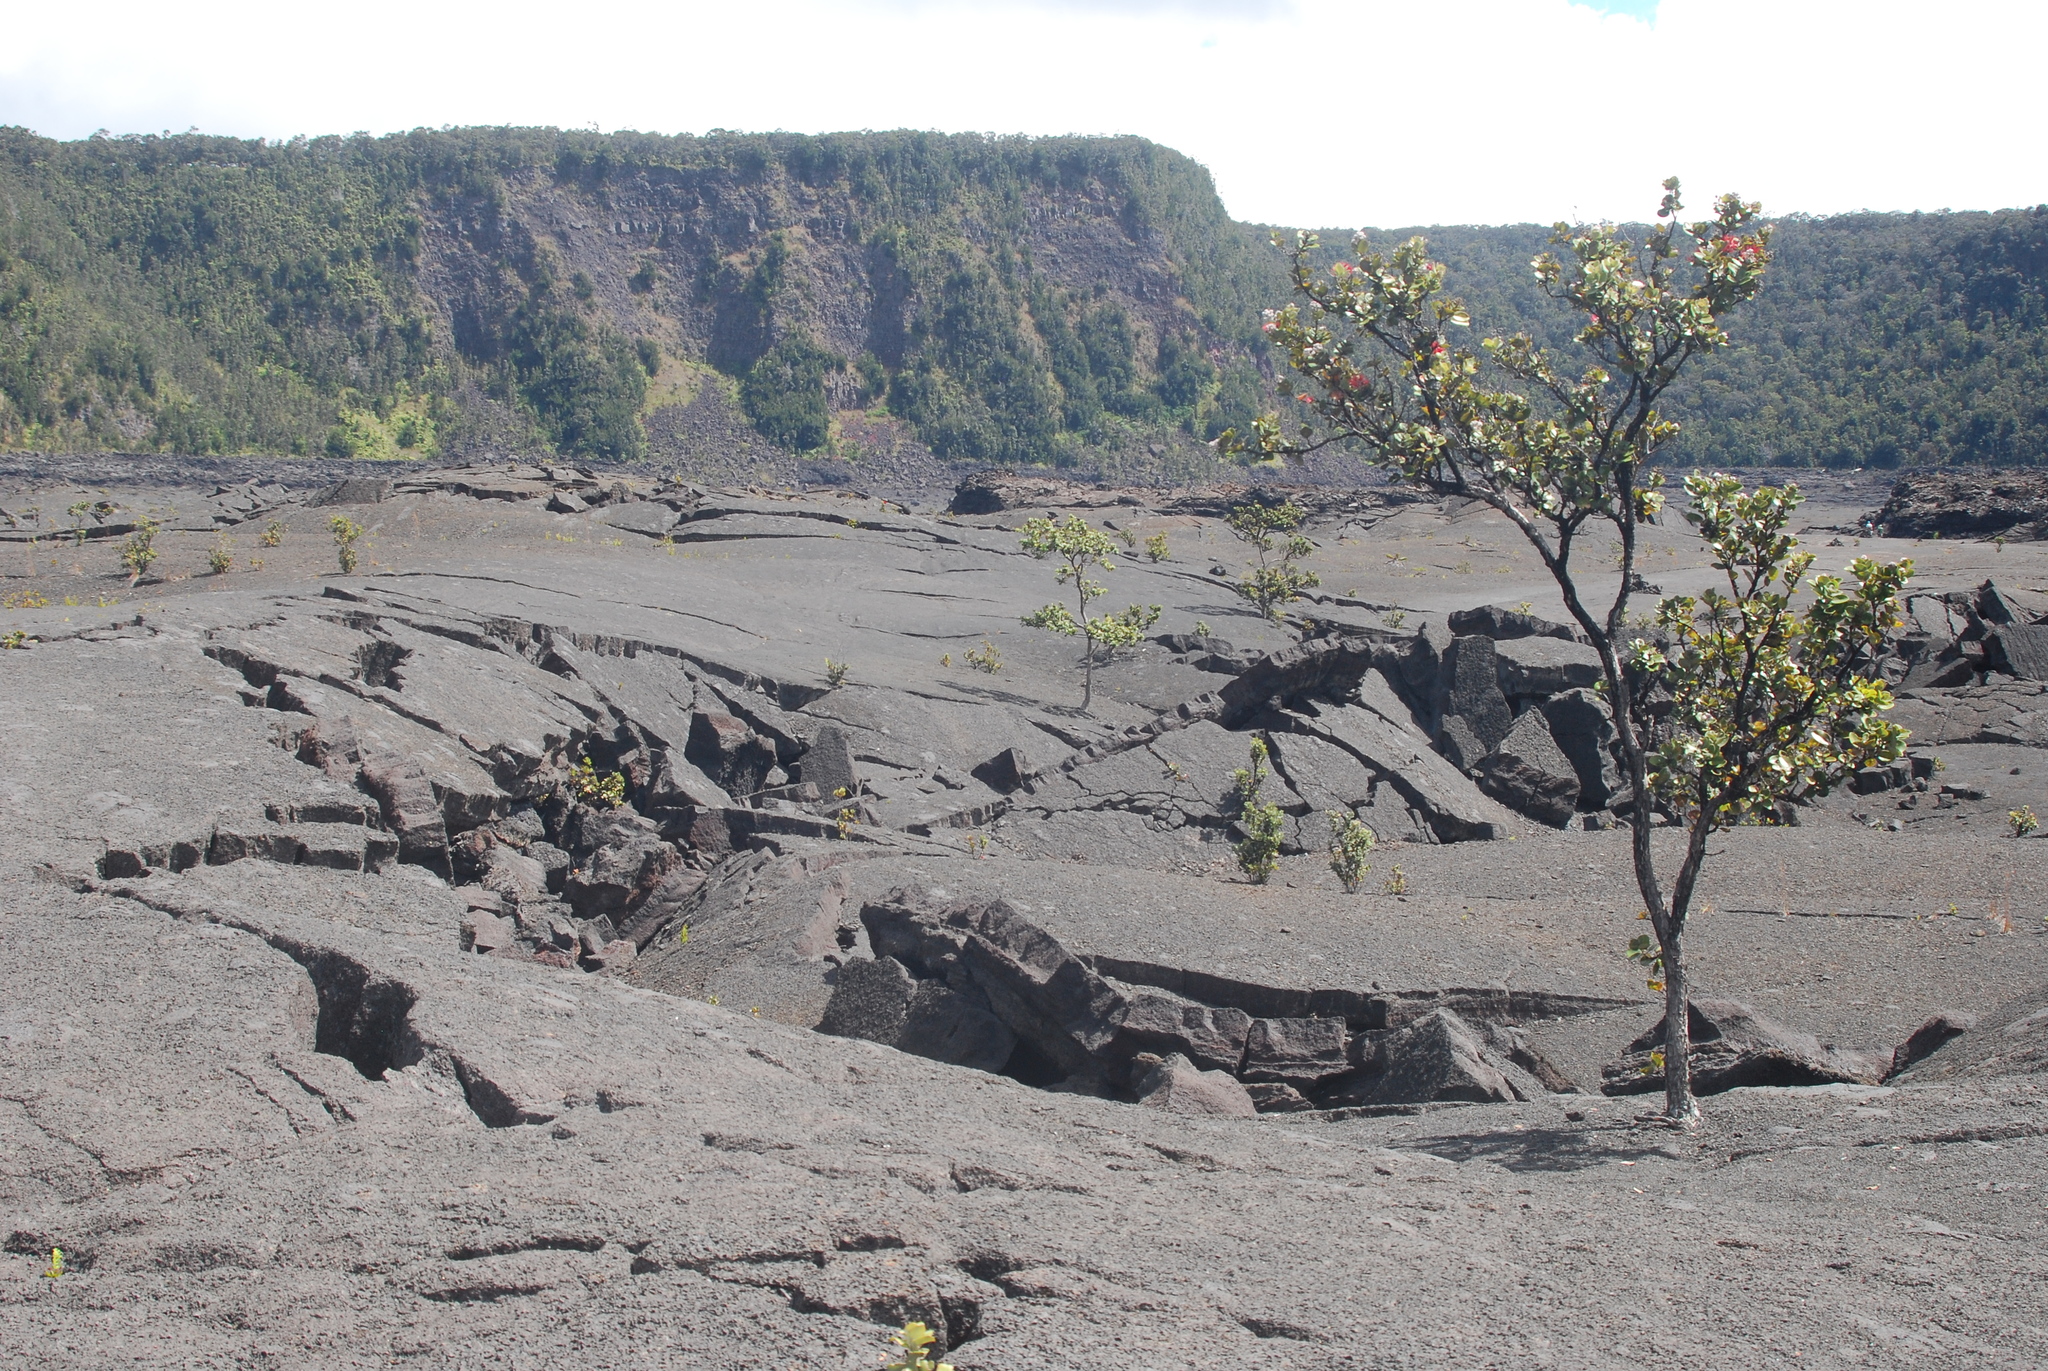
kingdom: Plantae
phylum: Tracheophyta
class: Magnoliopsida
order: Myrtales
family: Myrtaceae
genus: Metrosideros
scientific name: Metrosideros polymorpha
